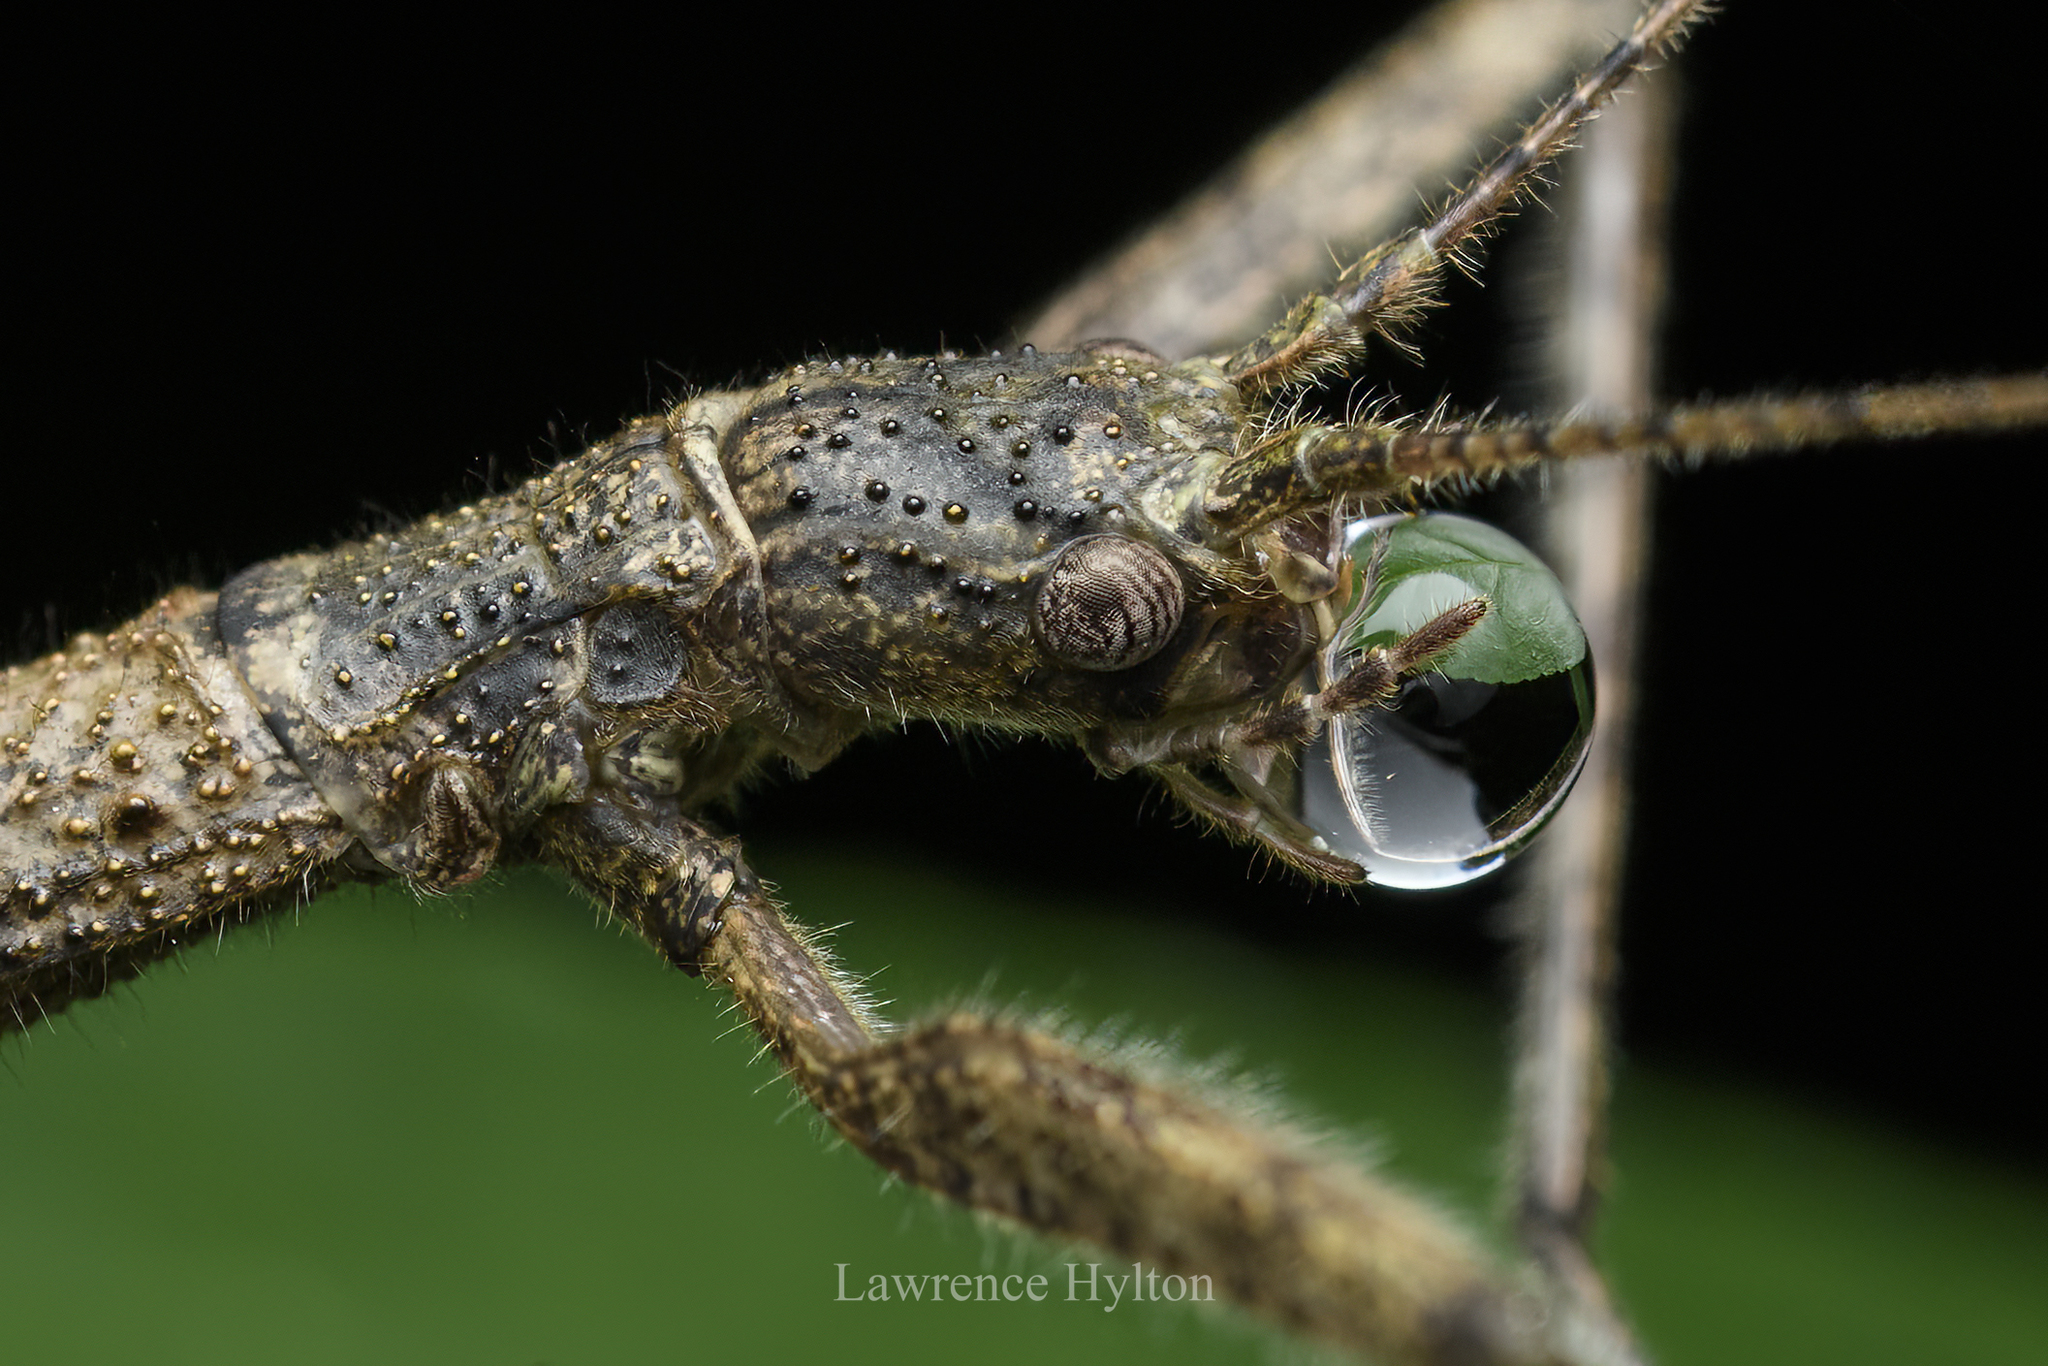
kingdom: Animalia
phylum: Arthropoda
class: Insecta
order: Phasmida
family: Lonchodidae
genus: Planososibia
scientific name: Planososibia truncata
